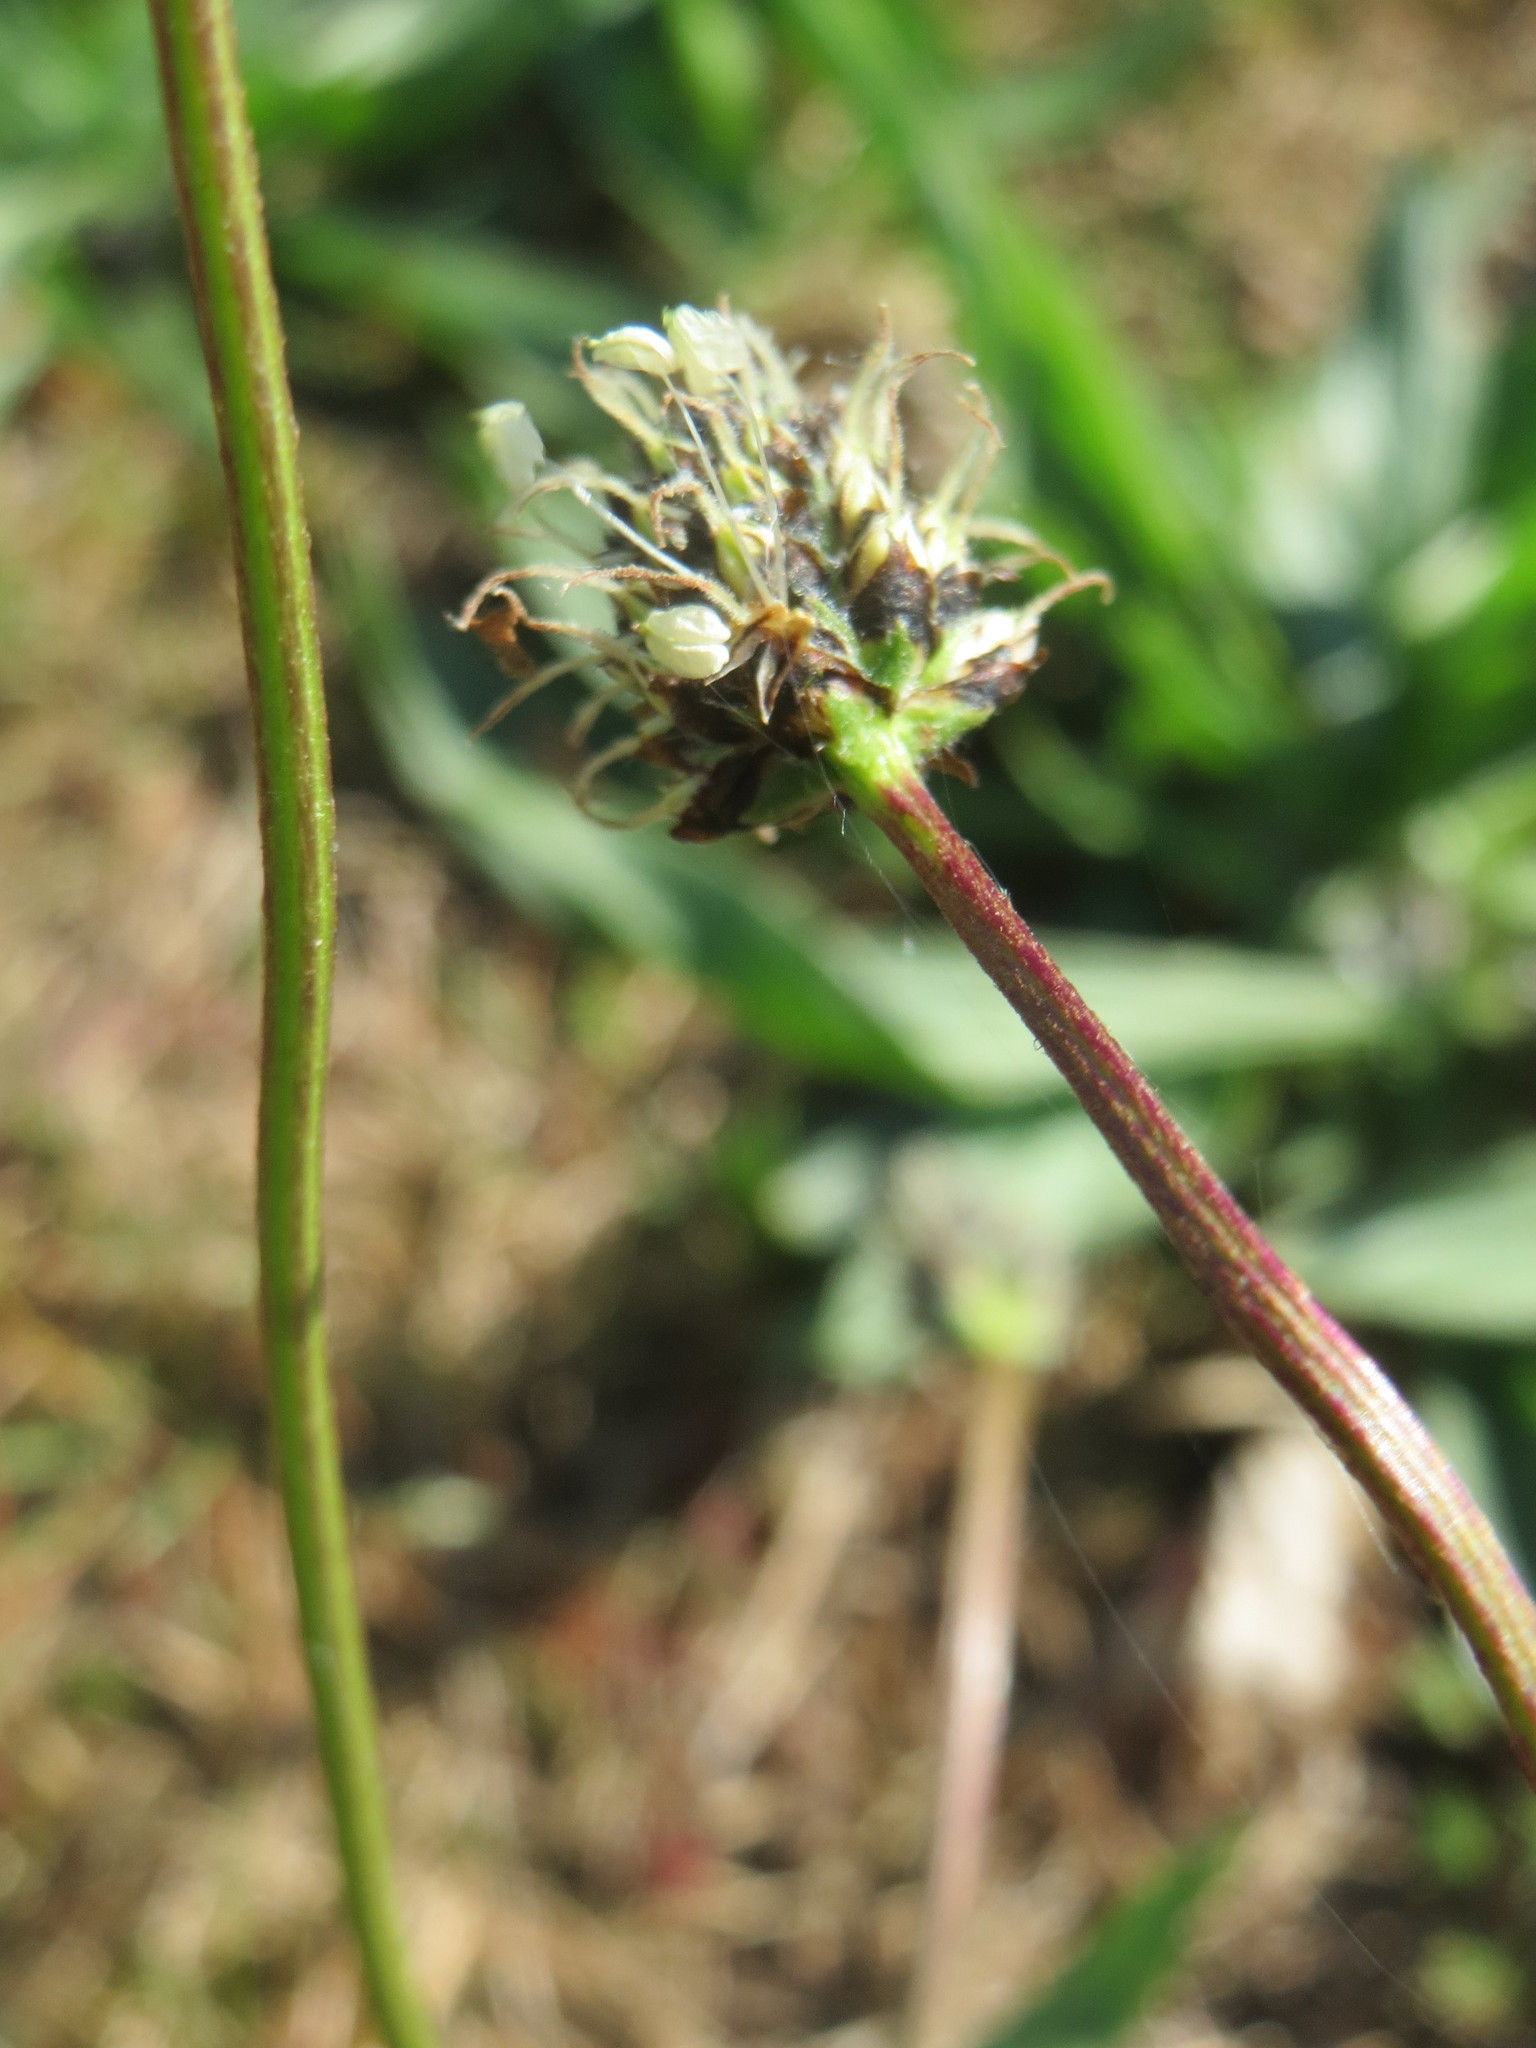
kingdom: Plantae
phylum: Tracheophyta
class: Magnoliopsida
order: Lamiales
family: Plantaginaceae
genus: Plantago
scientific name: Plantago lanceolata
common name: Ribwort plantain
